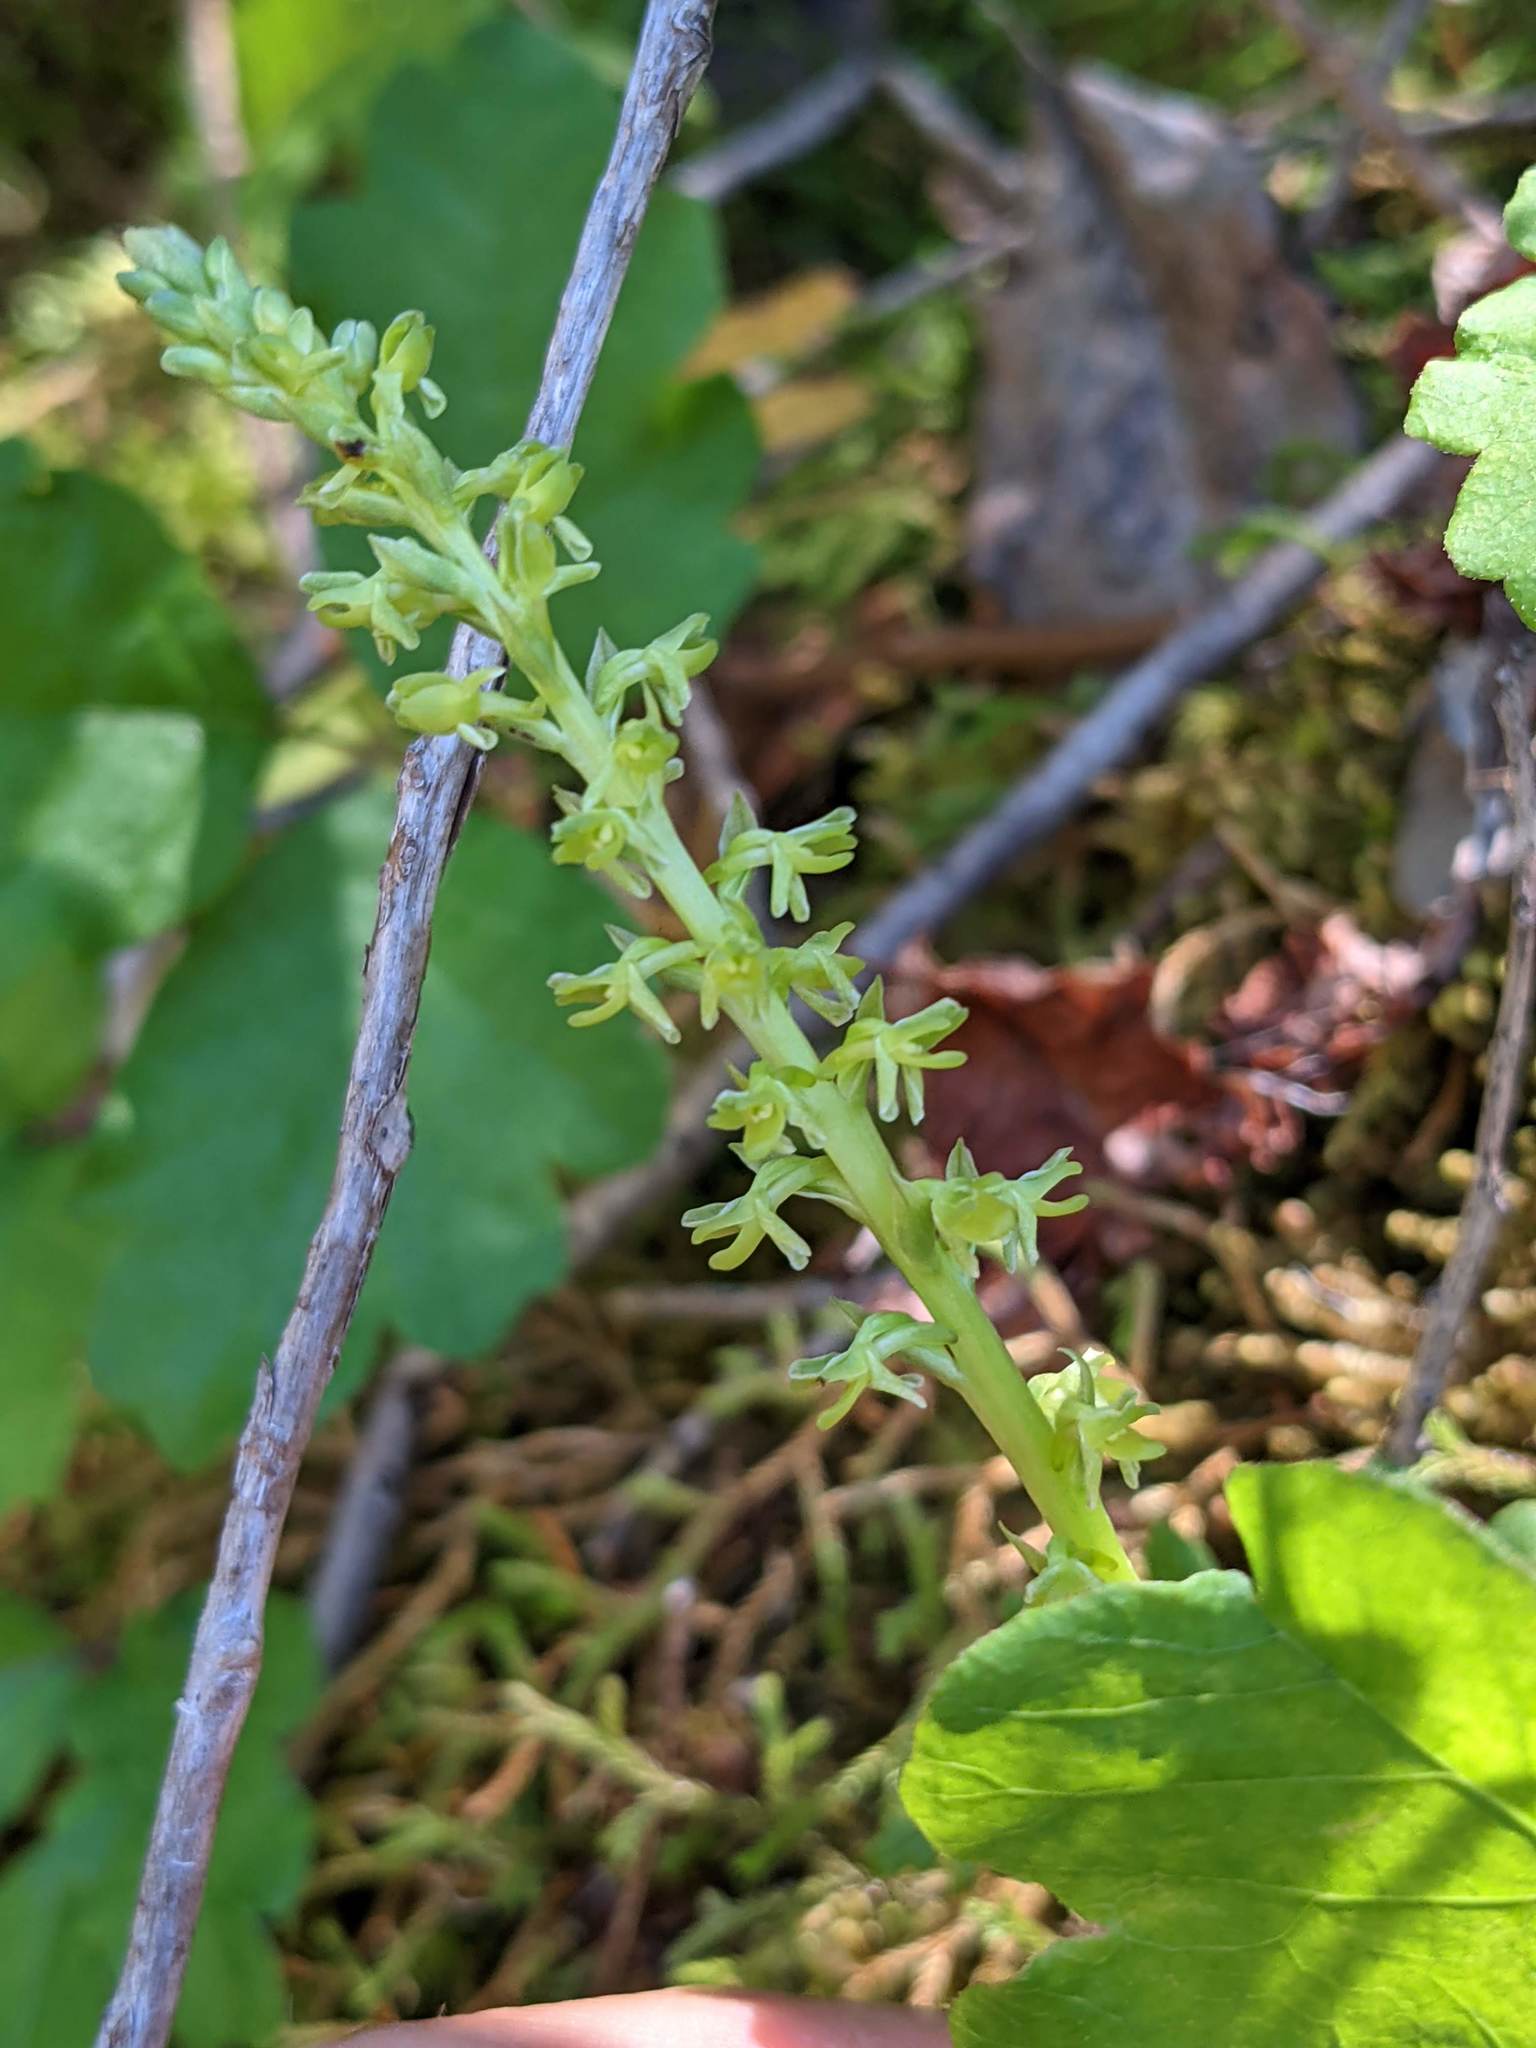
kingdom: Plantae
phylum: Tracheophyta
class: Liliopsida
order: Asparagales
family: Orchidaceae
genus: Platanthera
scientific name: Platanthera unalascensis
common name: Alaska bog orchid
